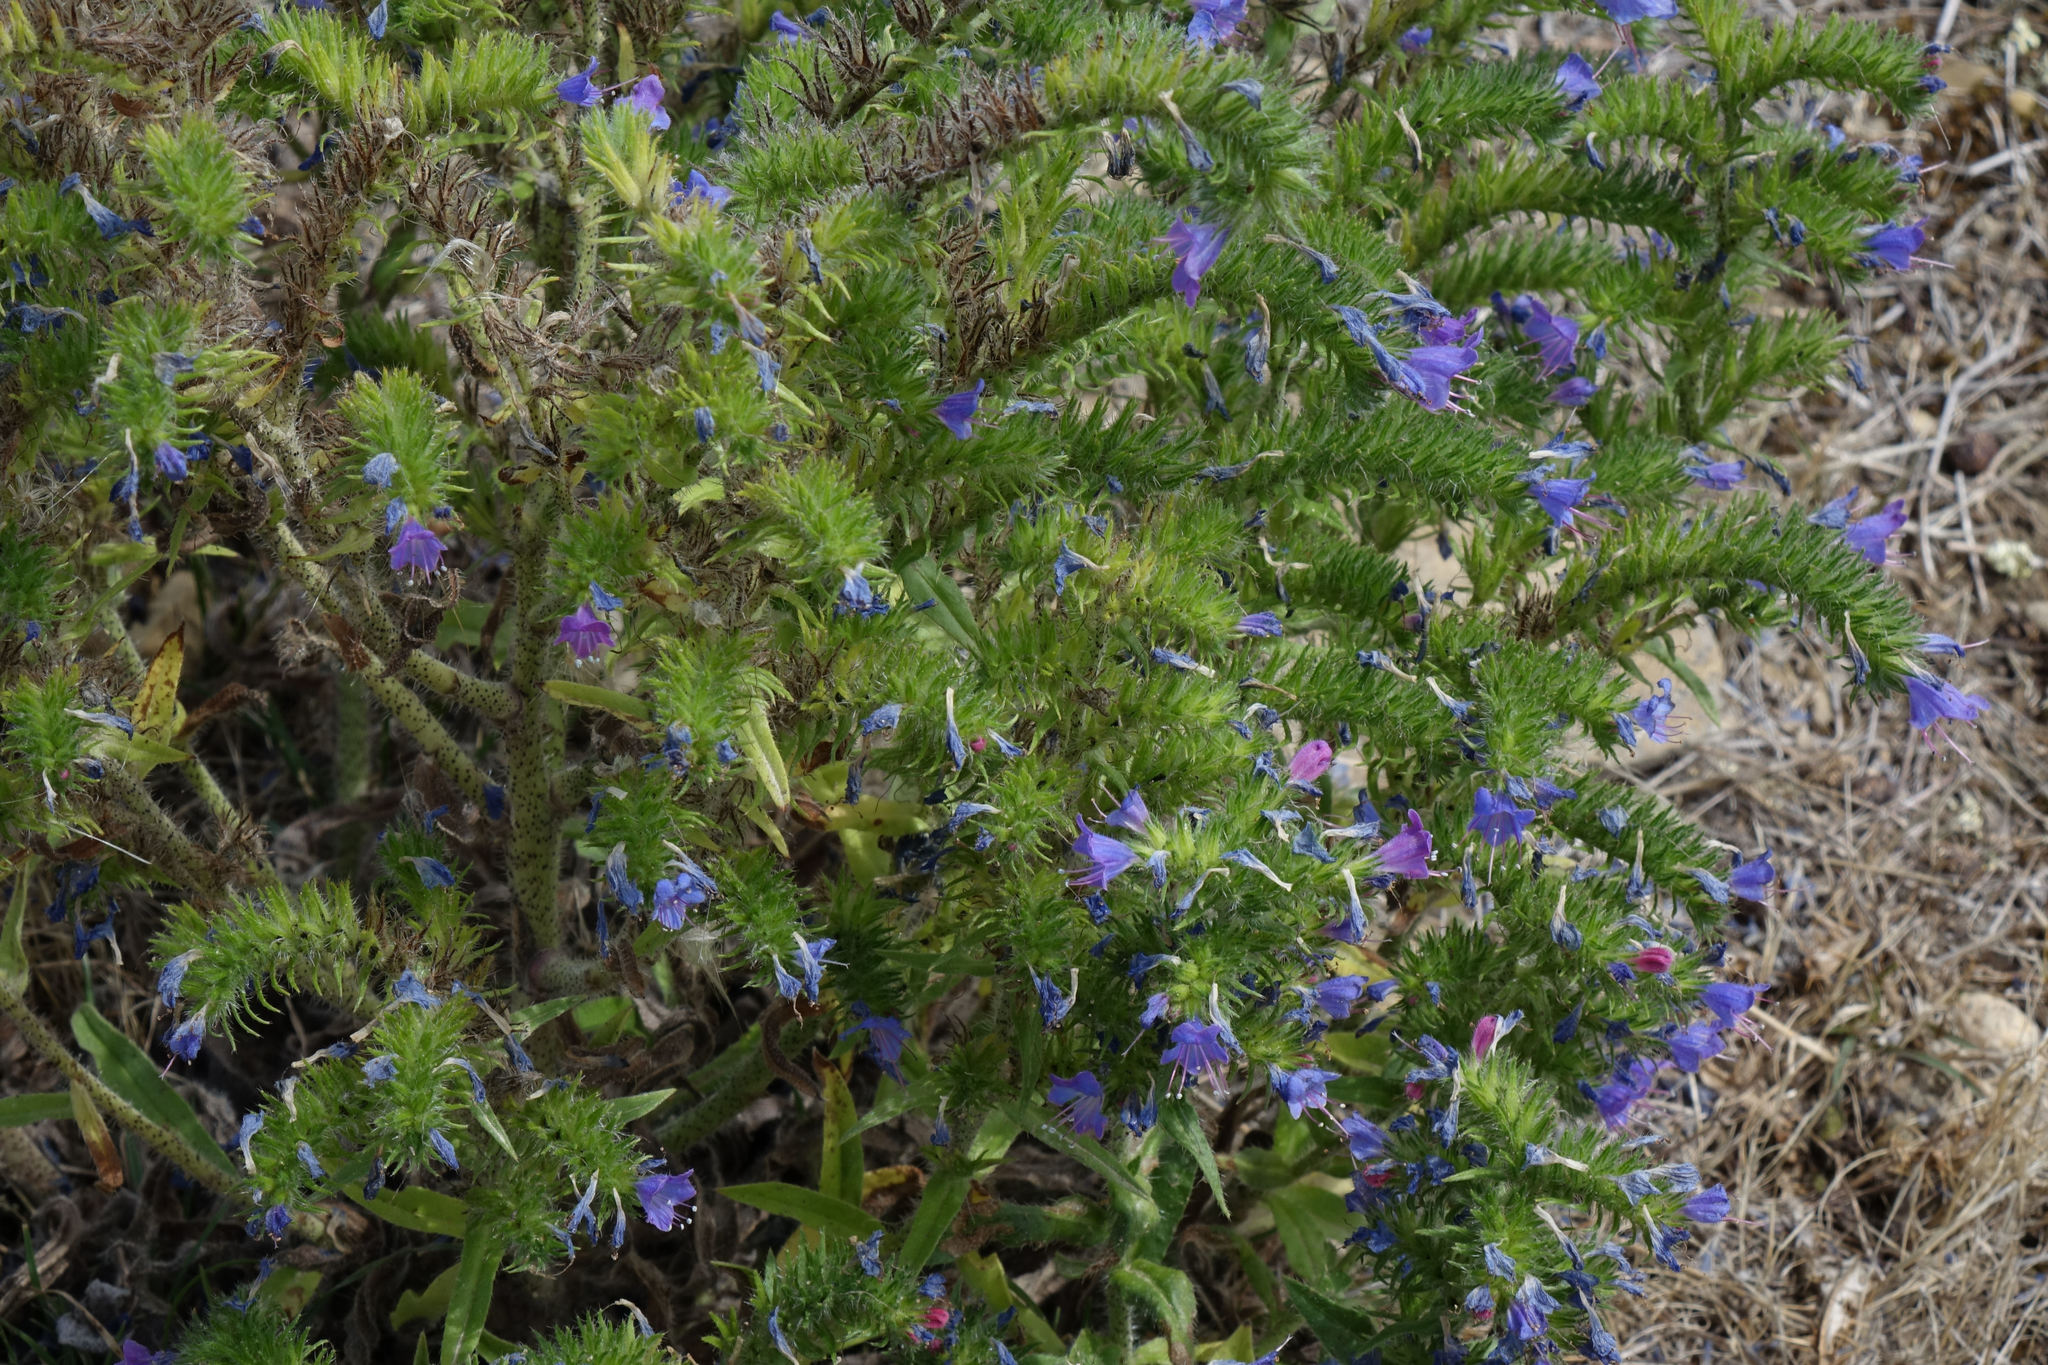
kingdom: Plantae
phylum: Tracheophyta
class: Magnoliopsida
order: Boraginales
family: Boraginaceae
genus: Echium
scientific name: Echium vulgare
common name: Common viper's bugloss
